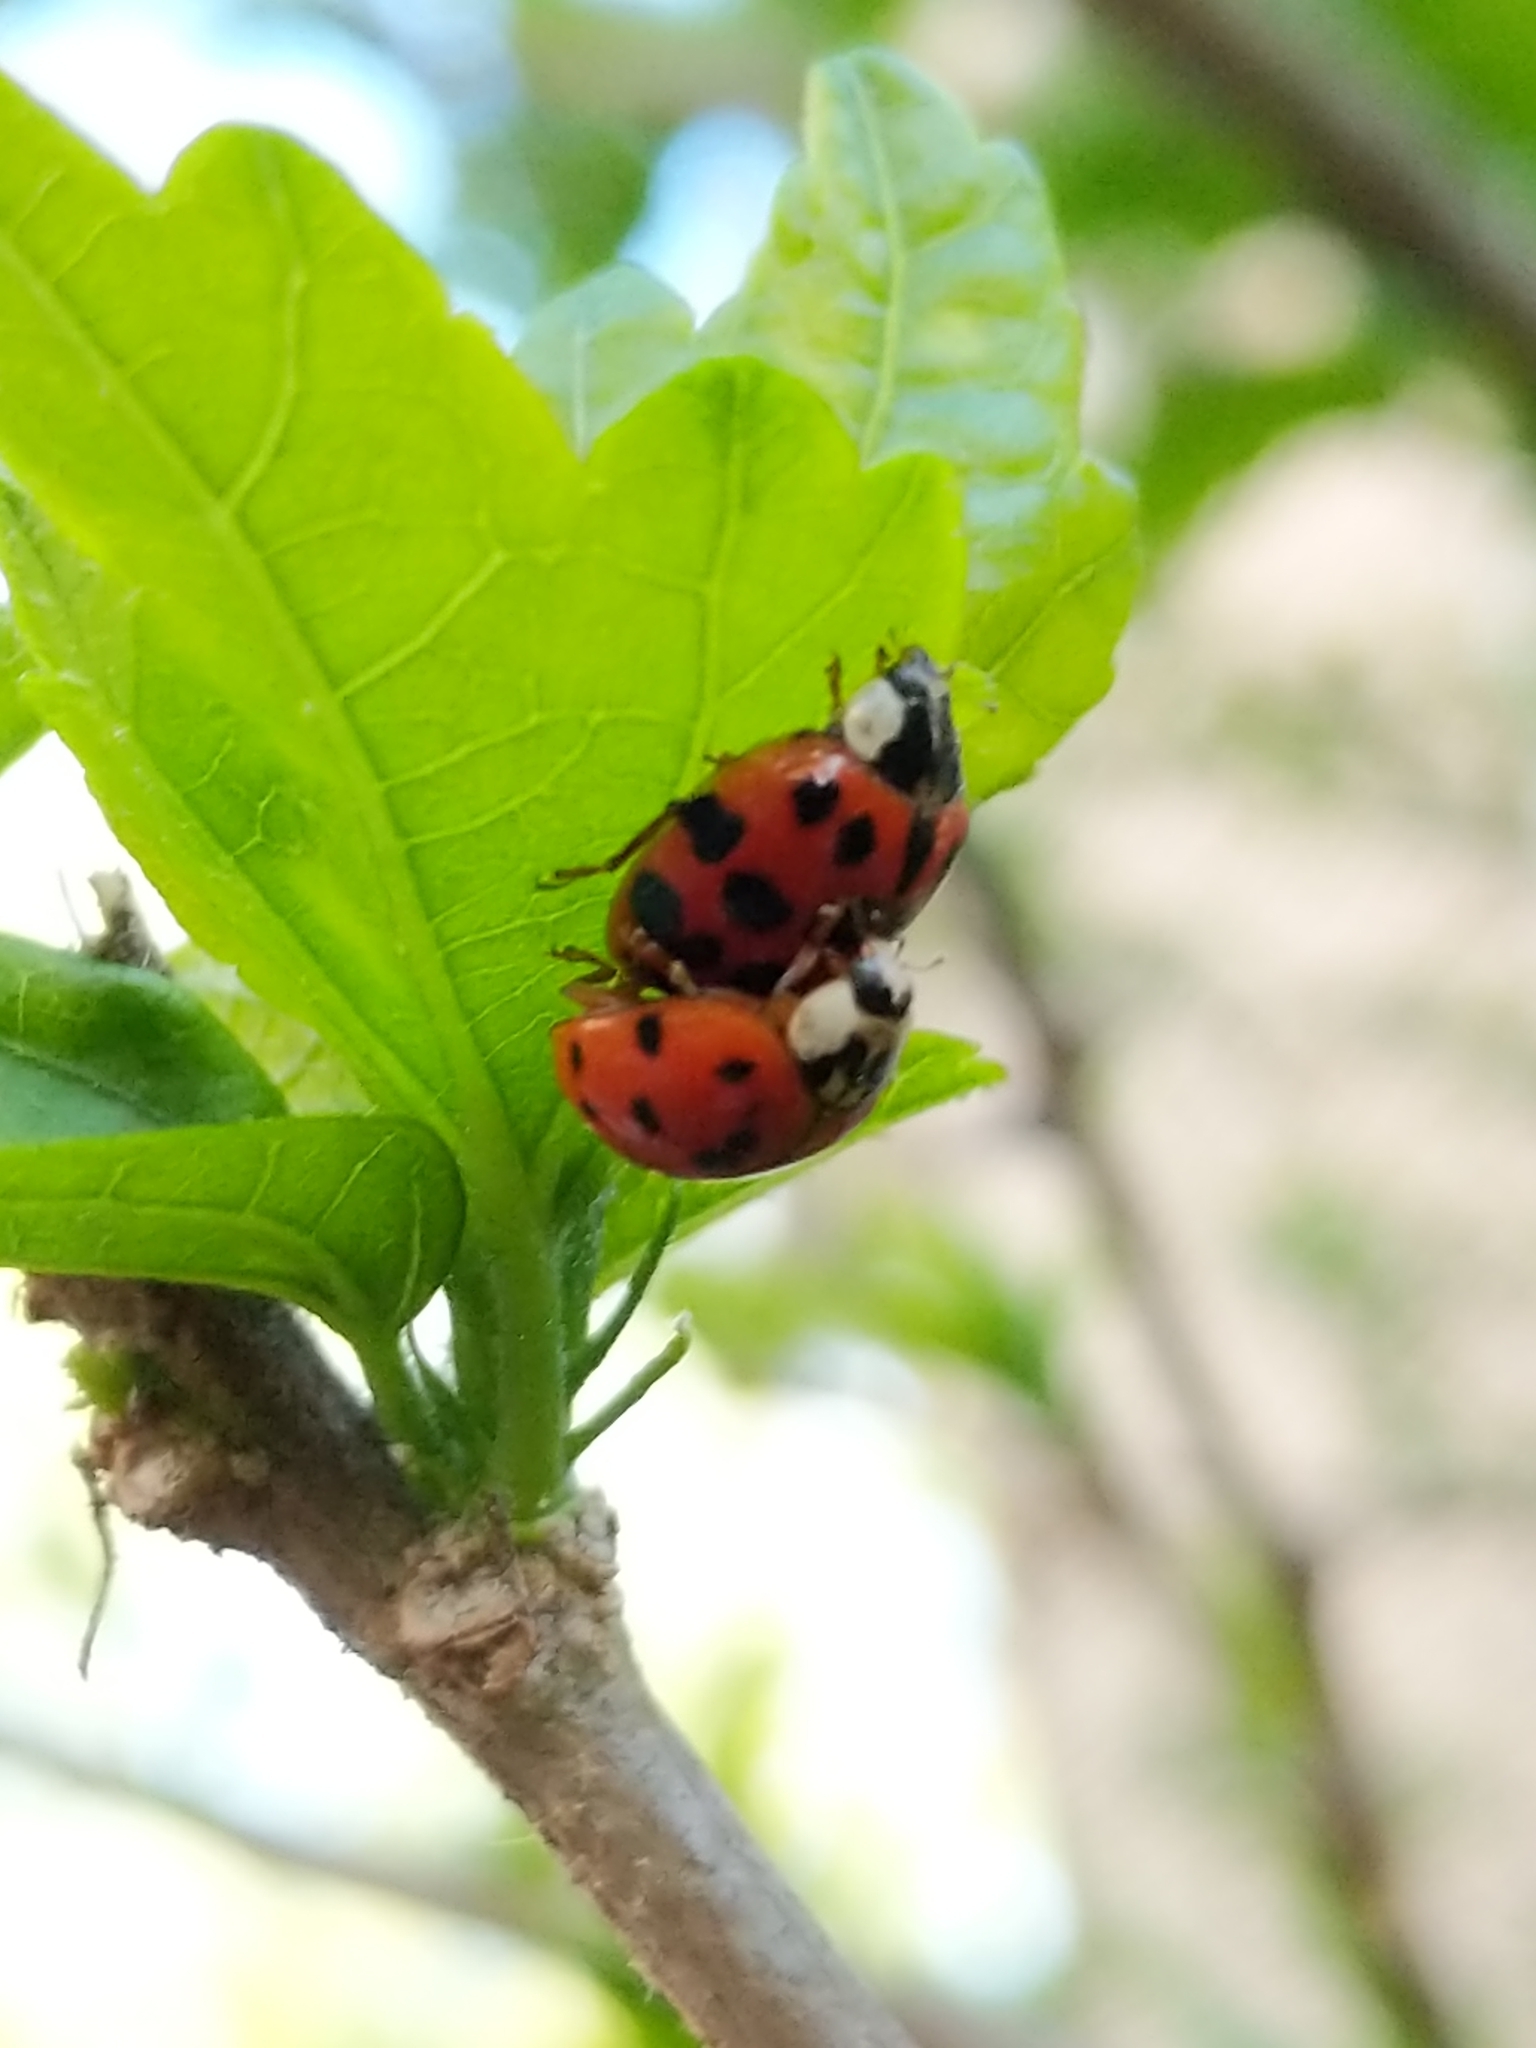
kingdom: Animalia
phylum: Arthropoda
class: Insecta
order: Coleoptera
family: Coccinellidae
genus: Harmonia
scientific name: Harmonia axyridis
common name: Harlequin ladybird
